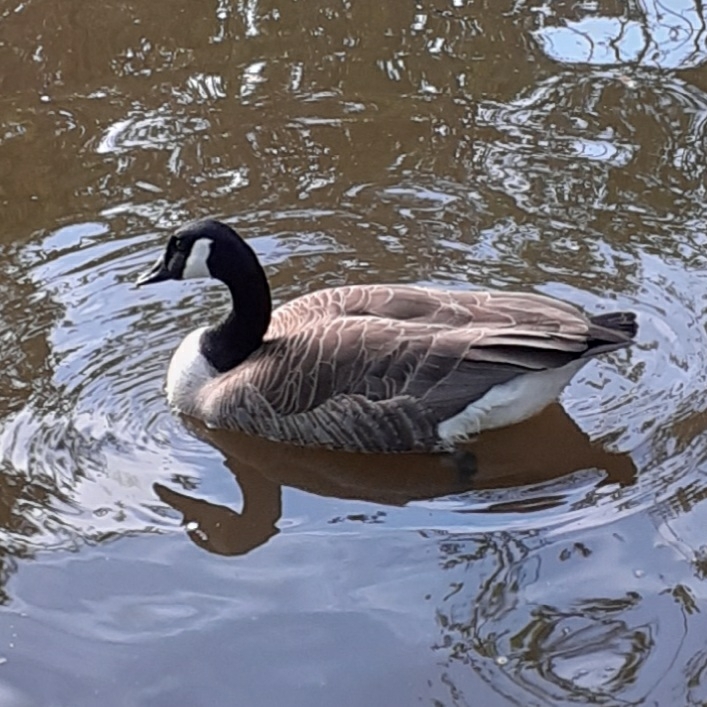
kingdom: Animalia
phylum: Chordata
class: Aves
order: Anseriformes
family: Anatidae
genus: Branta
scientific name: Branta canadensis
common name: Canada goose
